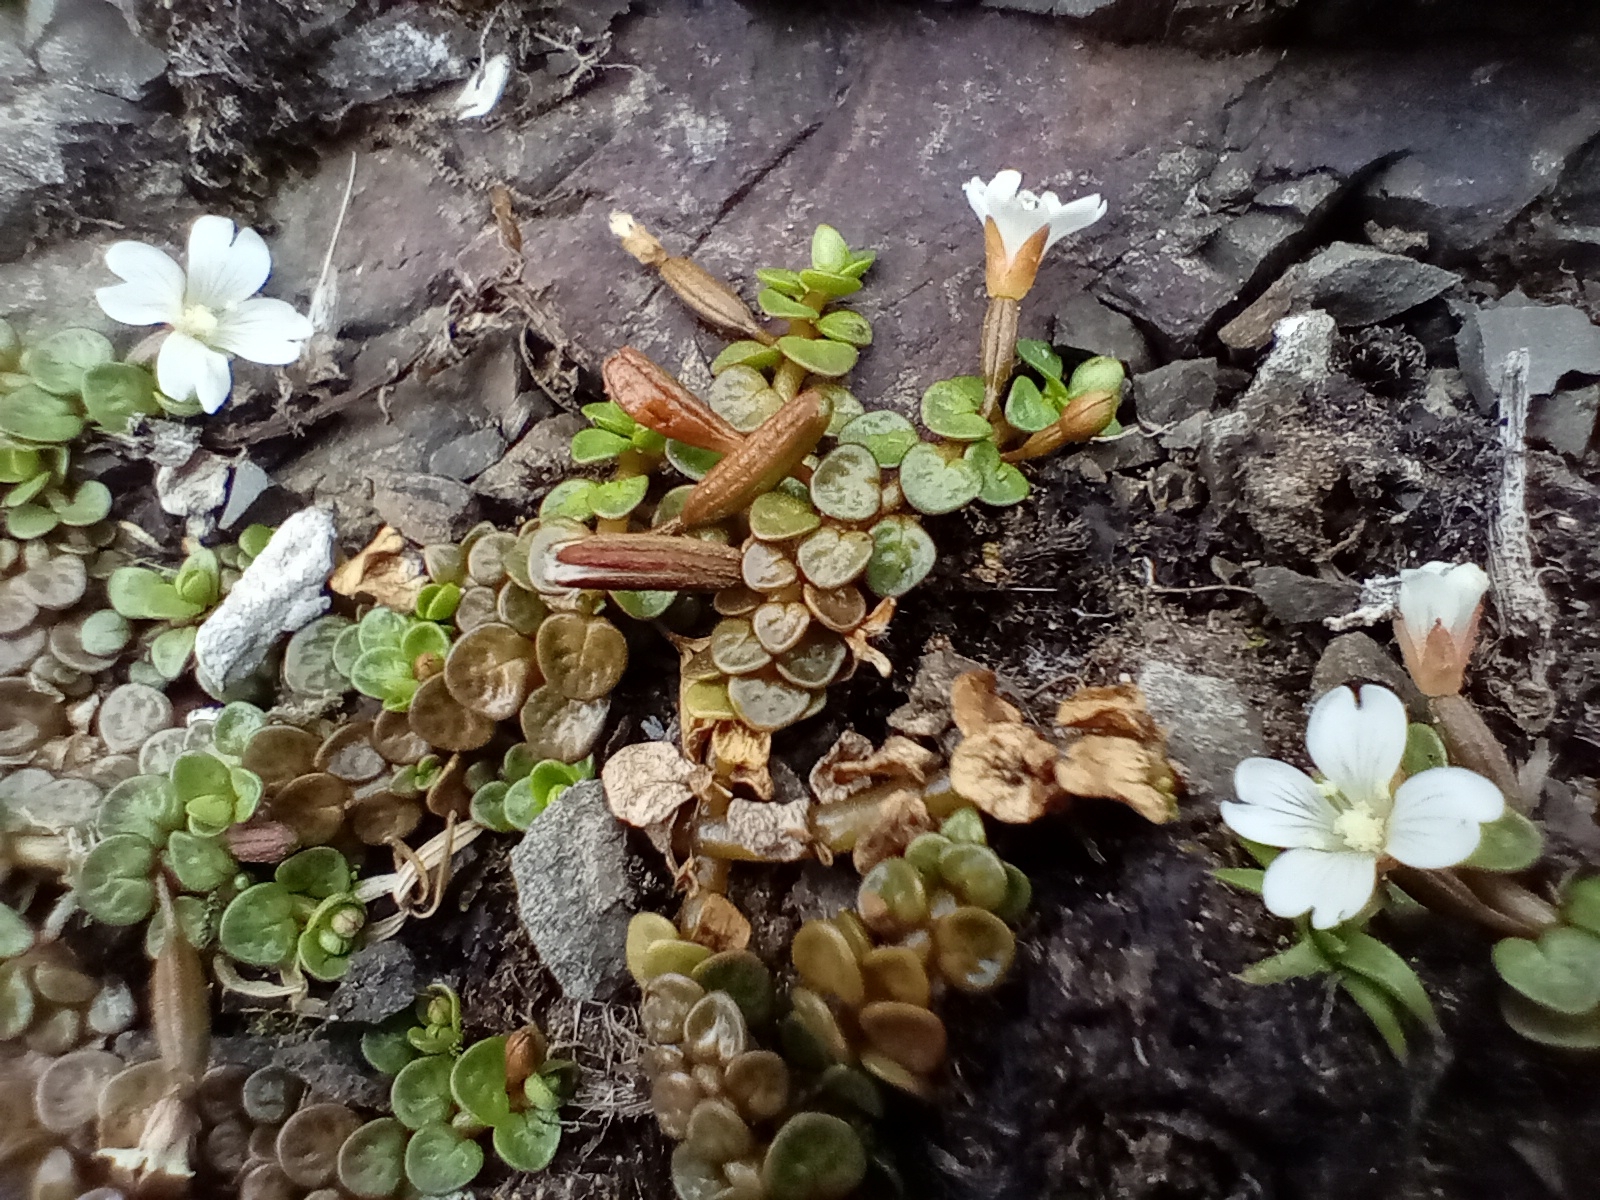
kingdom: Plantae
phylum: Tracheophyta
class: Magnoliopsida
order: Myrtales
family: Onagraceae
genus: Epilobium
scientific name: Epilobium komarovianum
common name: Bronzy willowherb
